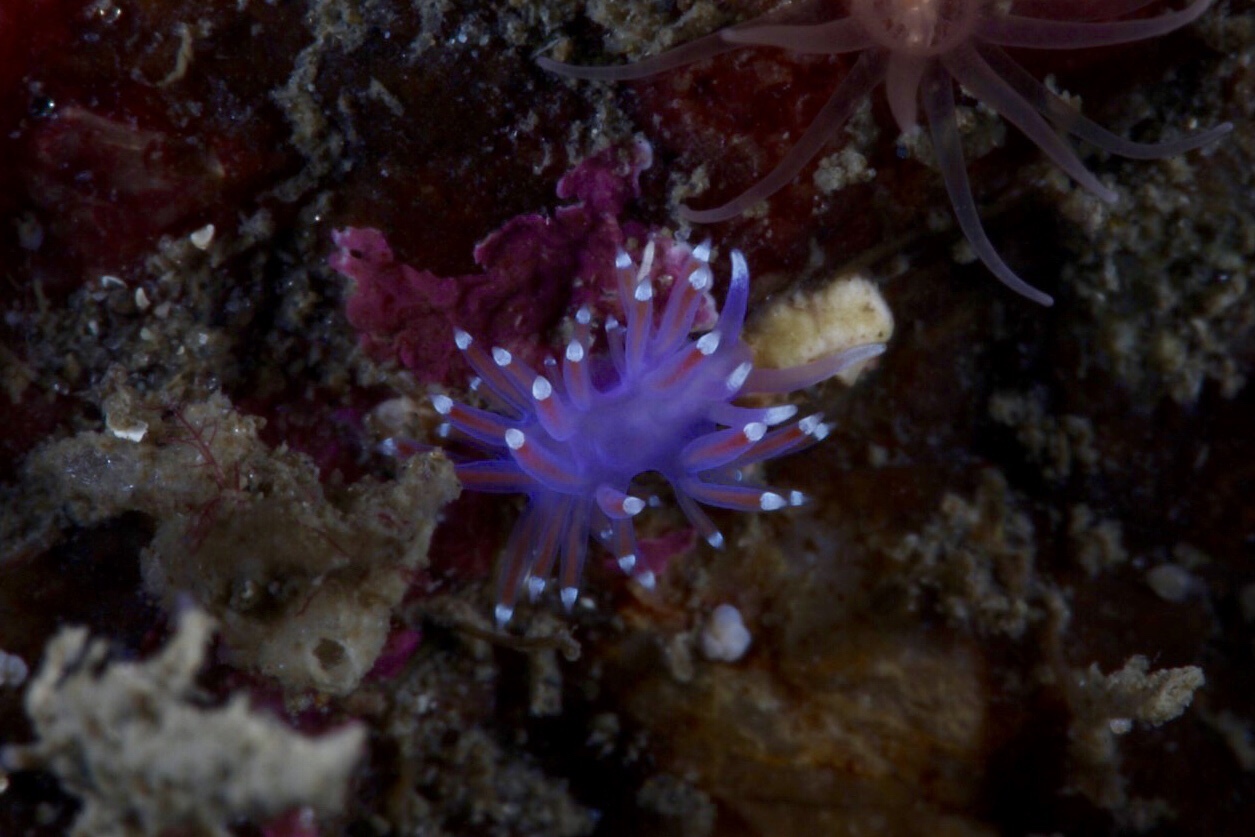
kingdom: Animalia
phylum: Mollusca
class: Gastropoda
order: Nudibranchia
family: Flabellinidae
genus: Edmundsella
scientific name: Edmundsella pedata
